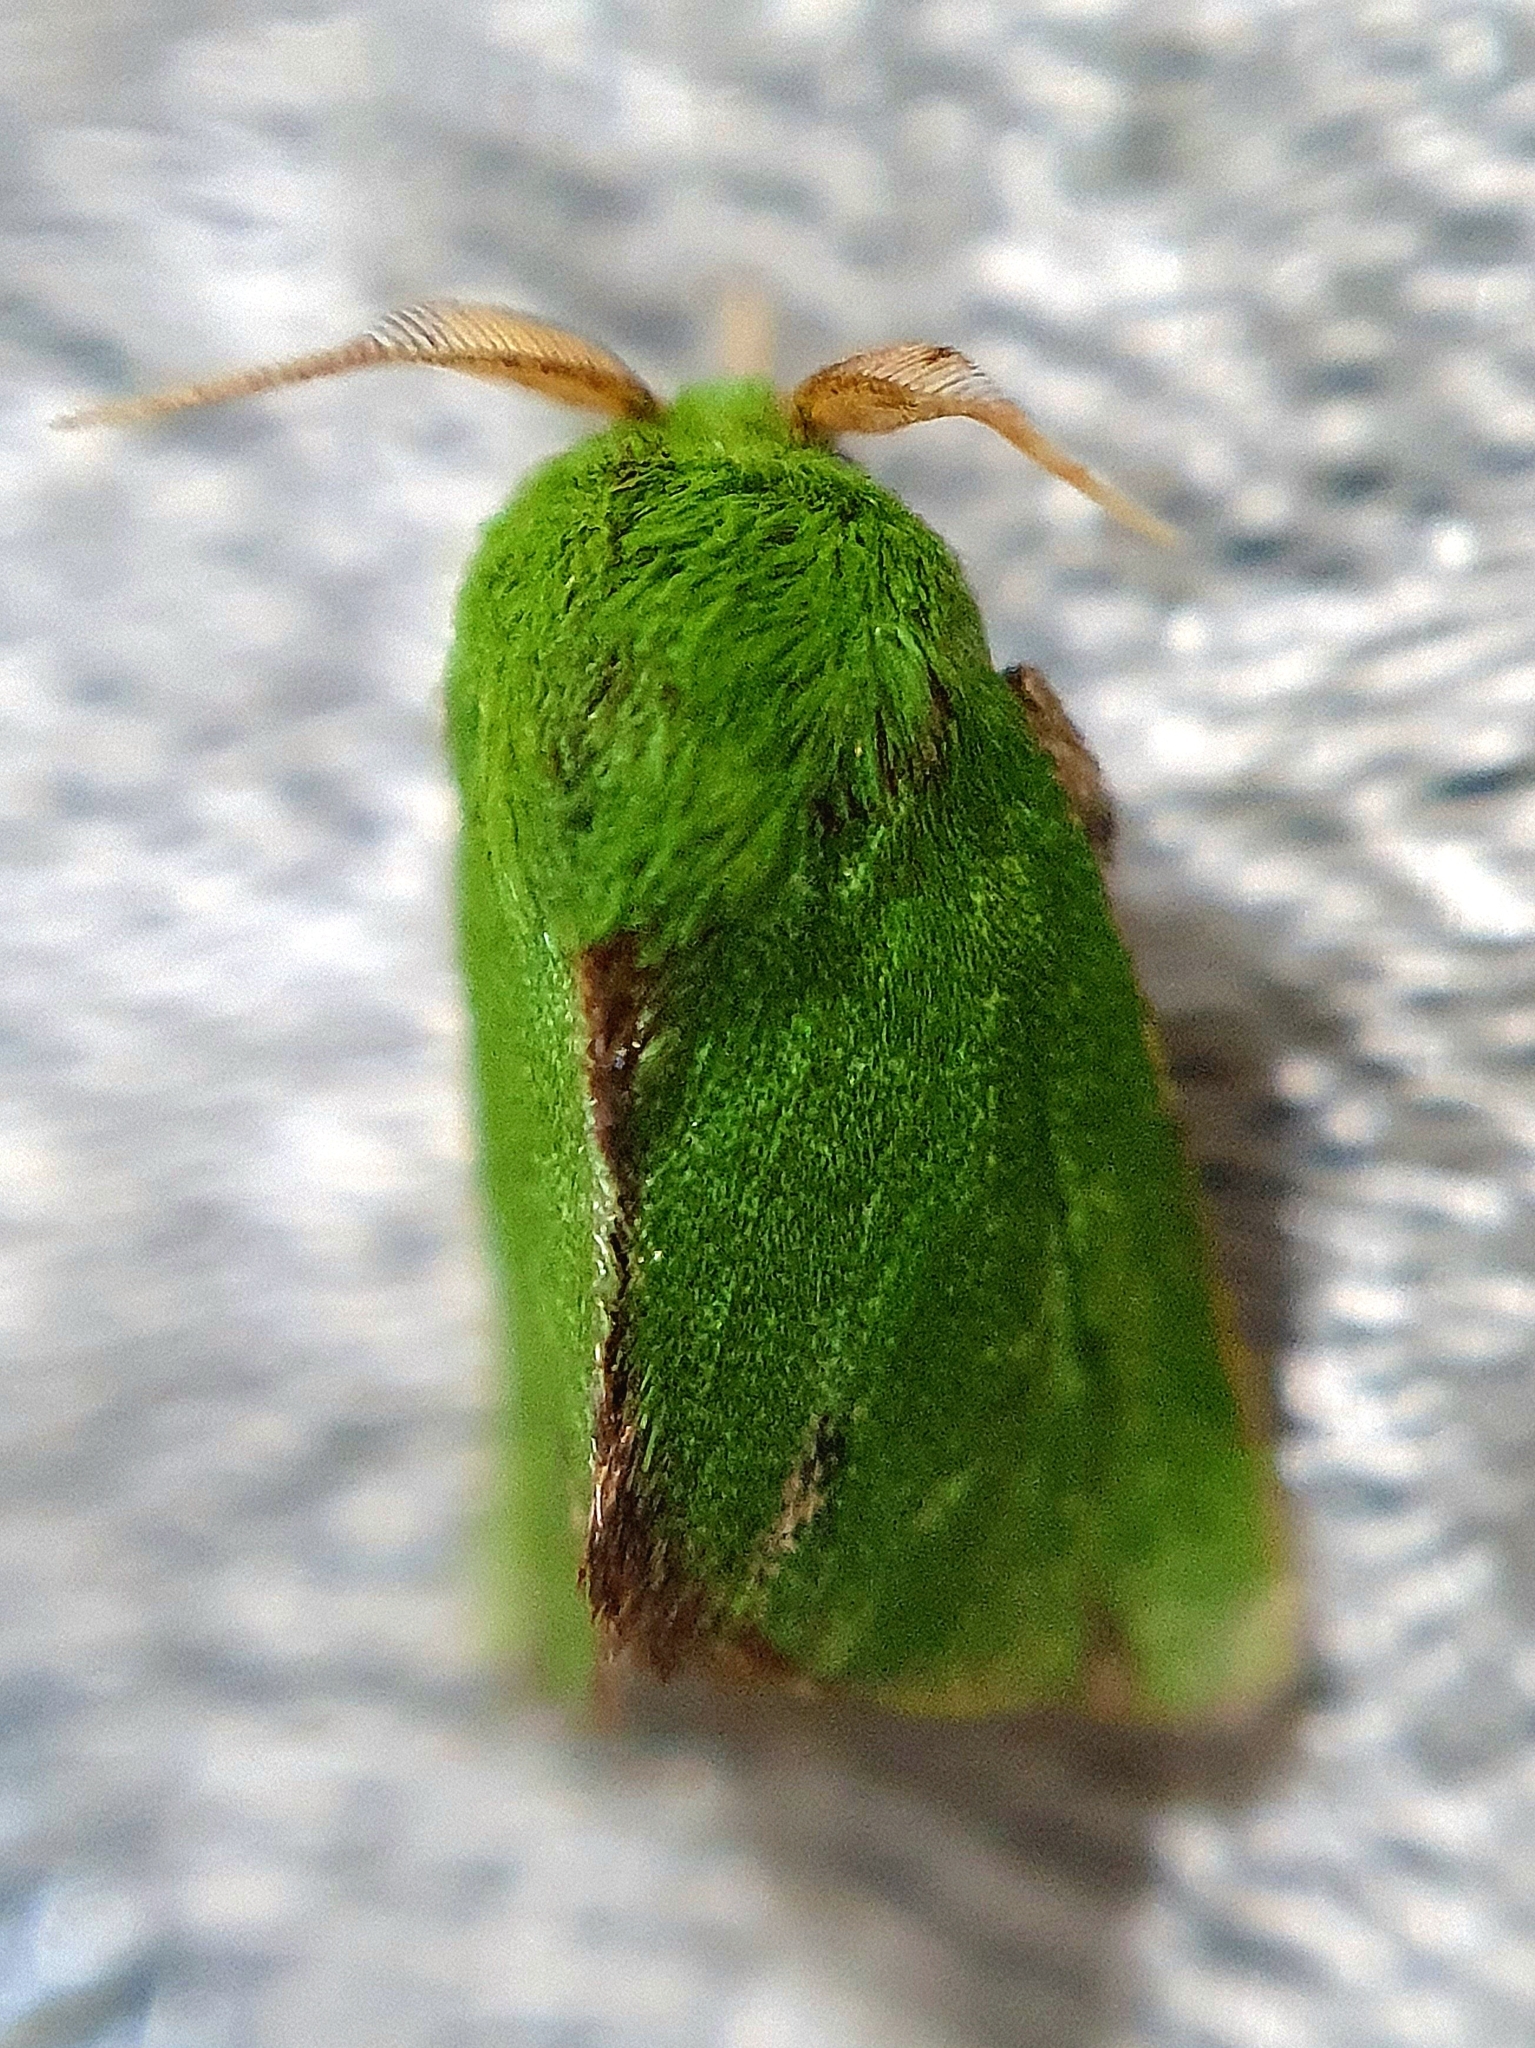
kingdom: Animalia
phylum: Arthropoda
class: Insecta
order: Lepidoptera
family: Limacodidae
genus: Parasa
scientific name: Parasa herbina
